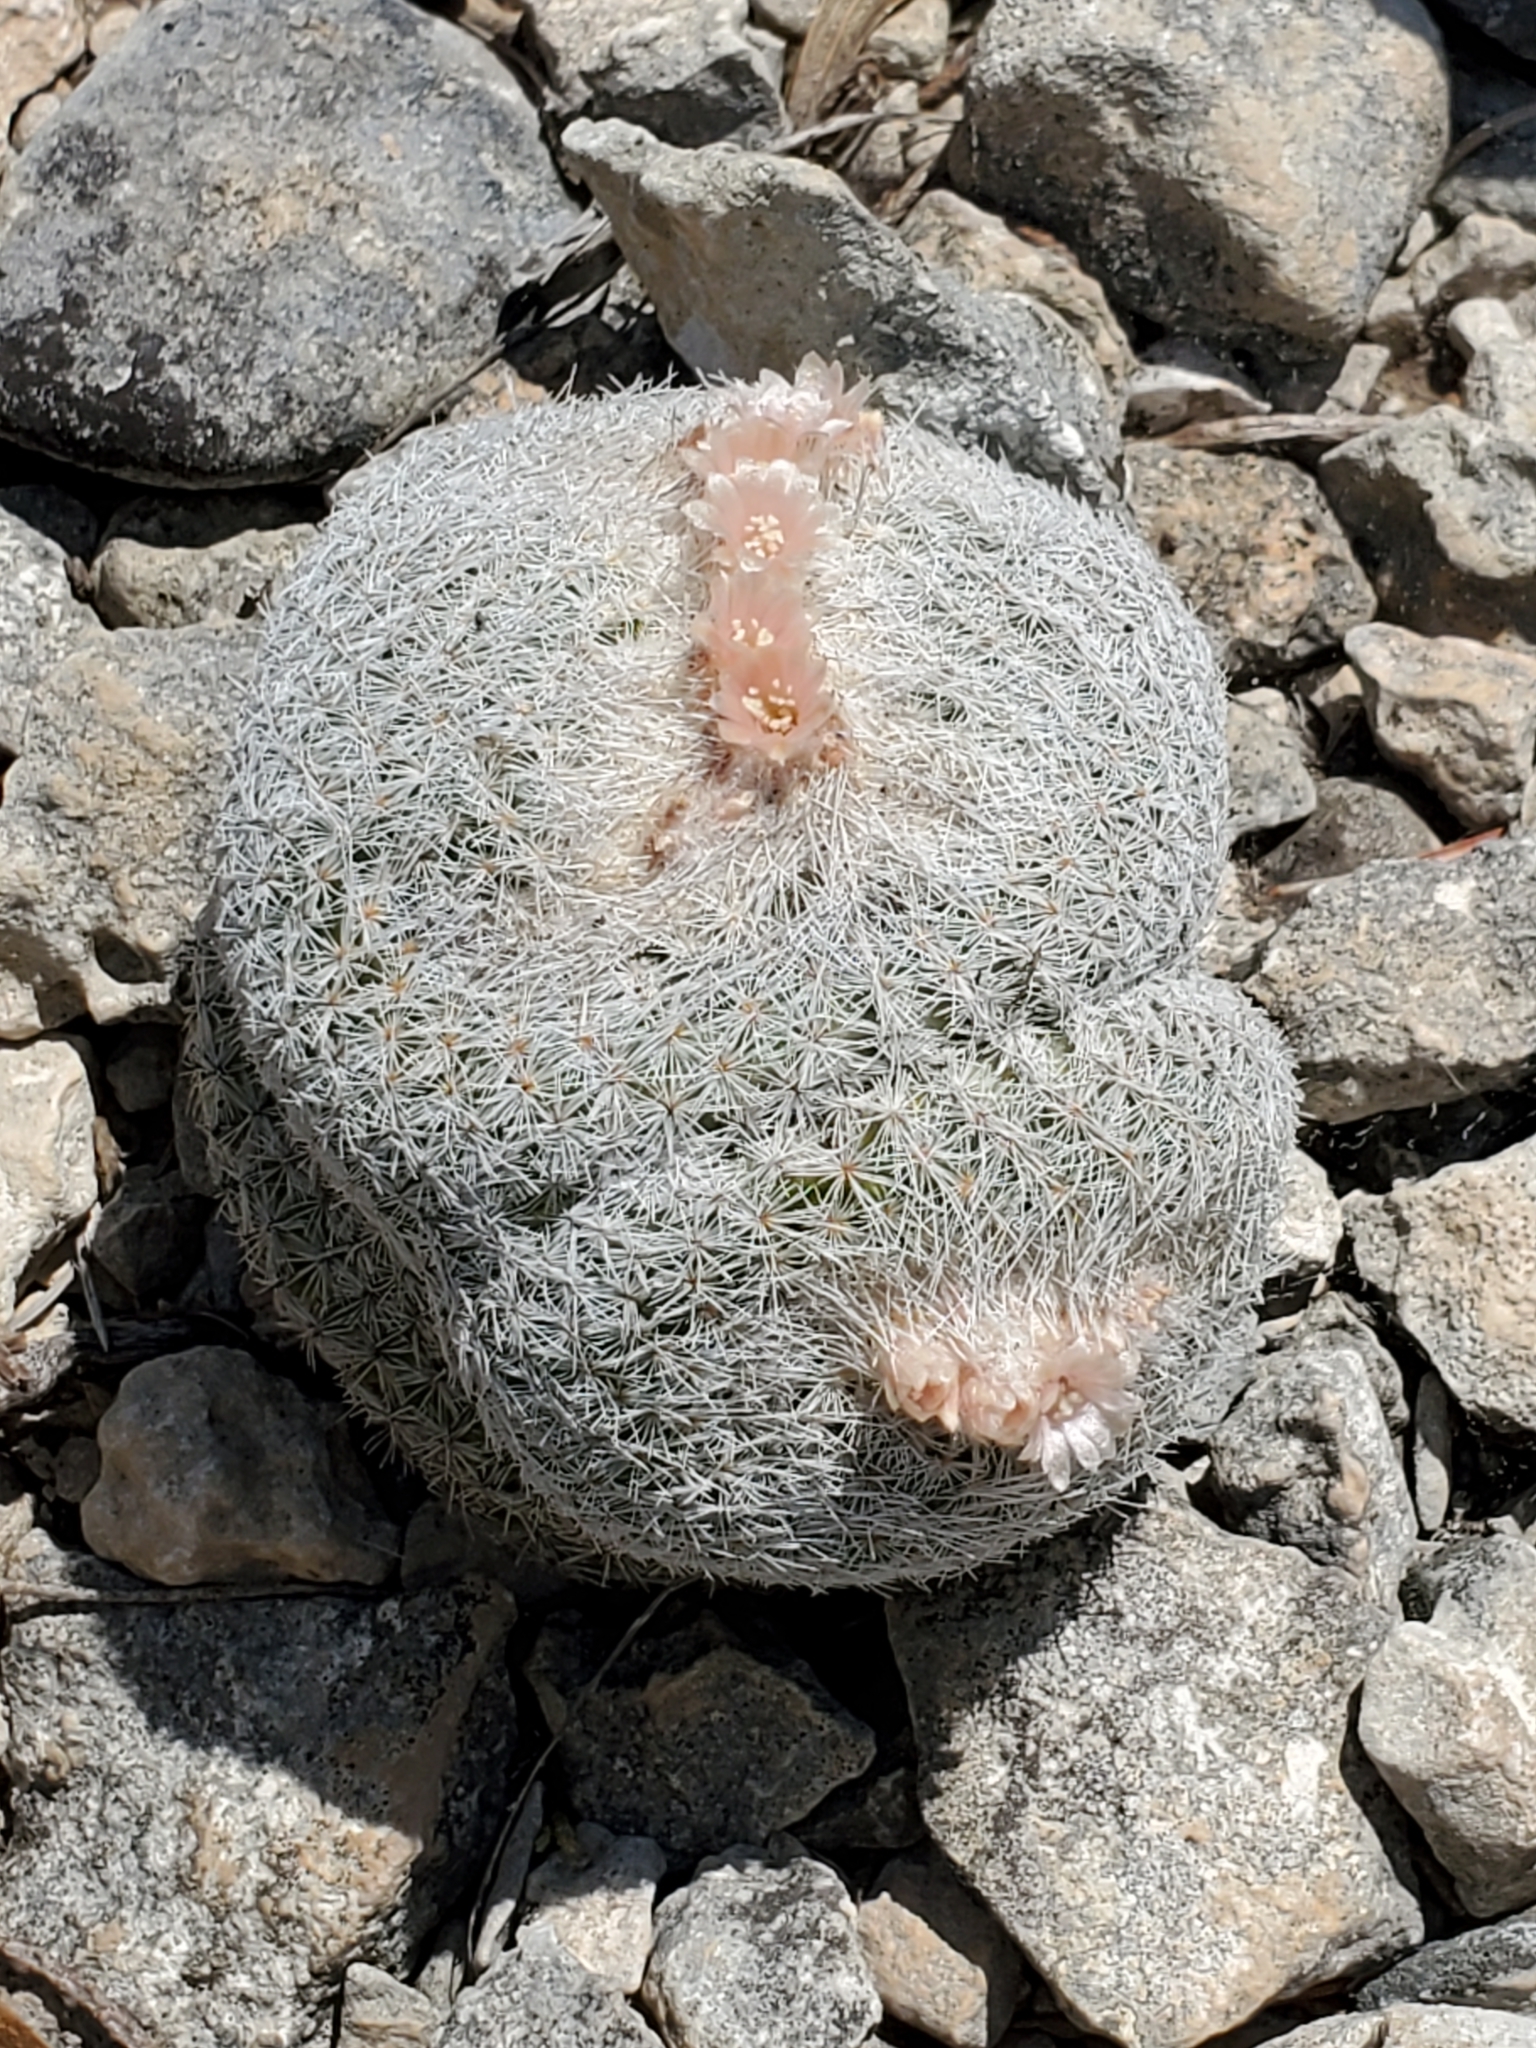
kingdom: Plantae
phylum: Tracheophyta
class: Magnoliopsida
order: Caryophyllales
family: Cactaceae
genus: Epithelantha
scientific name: Epithelantha micromeris
